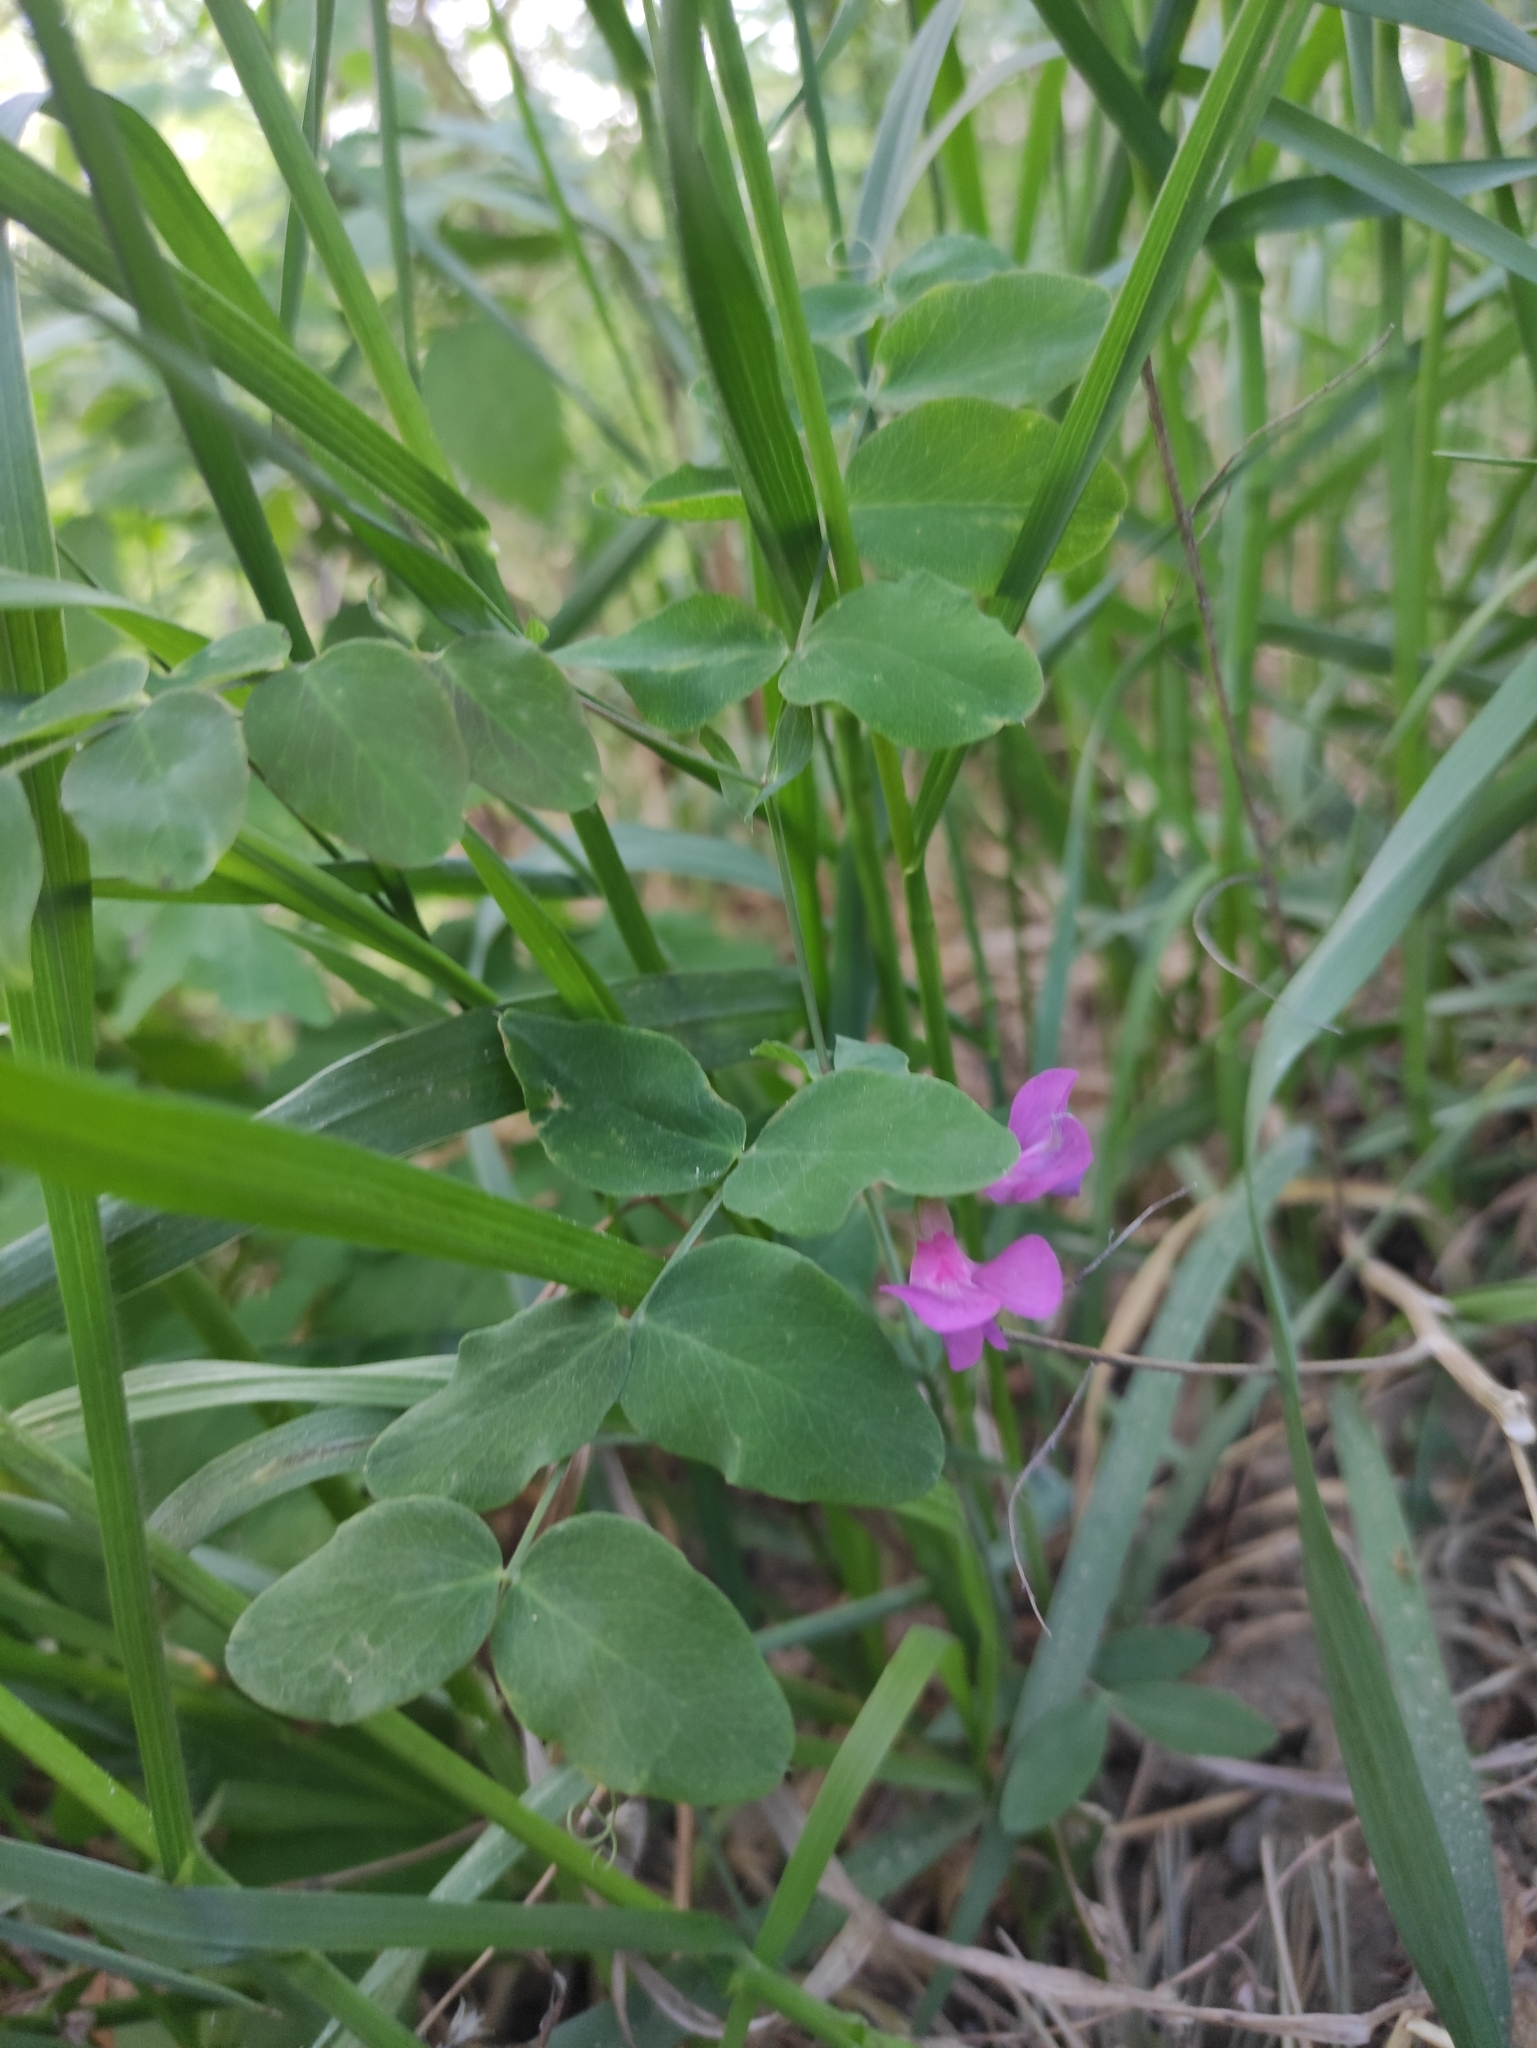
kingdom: Plantae
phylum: Tracheophyta
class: Magnoliopsida
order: Fabales
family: Fabaceae
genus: Lathyrus
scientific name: Lathyrus humilis
